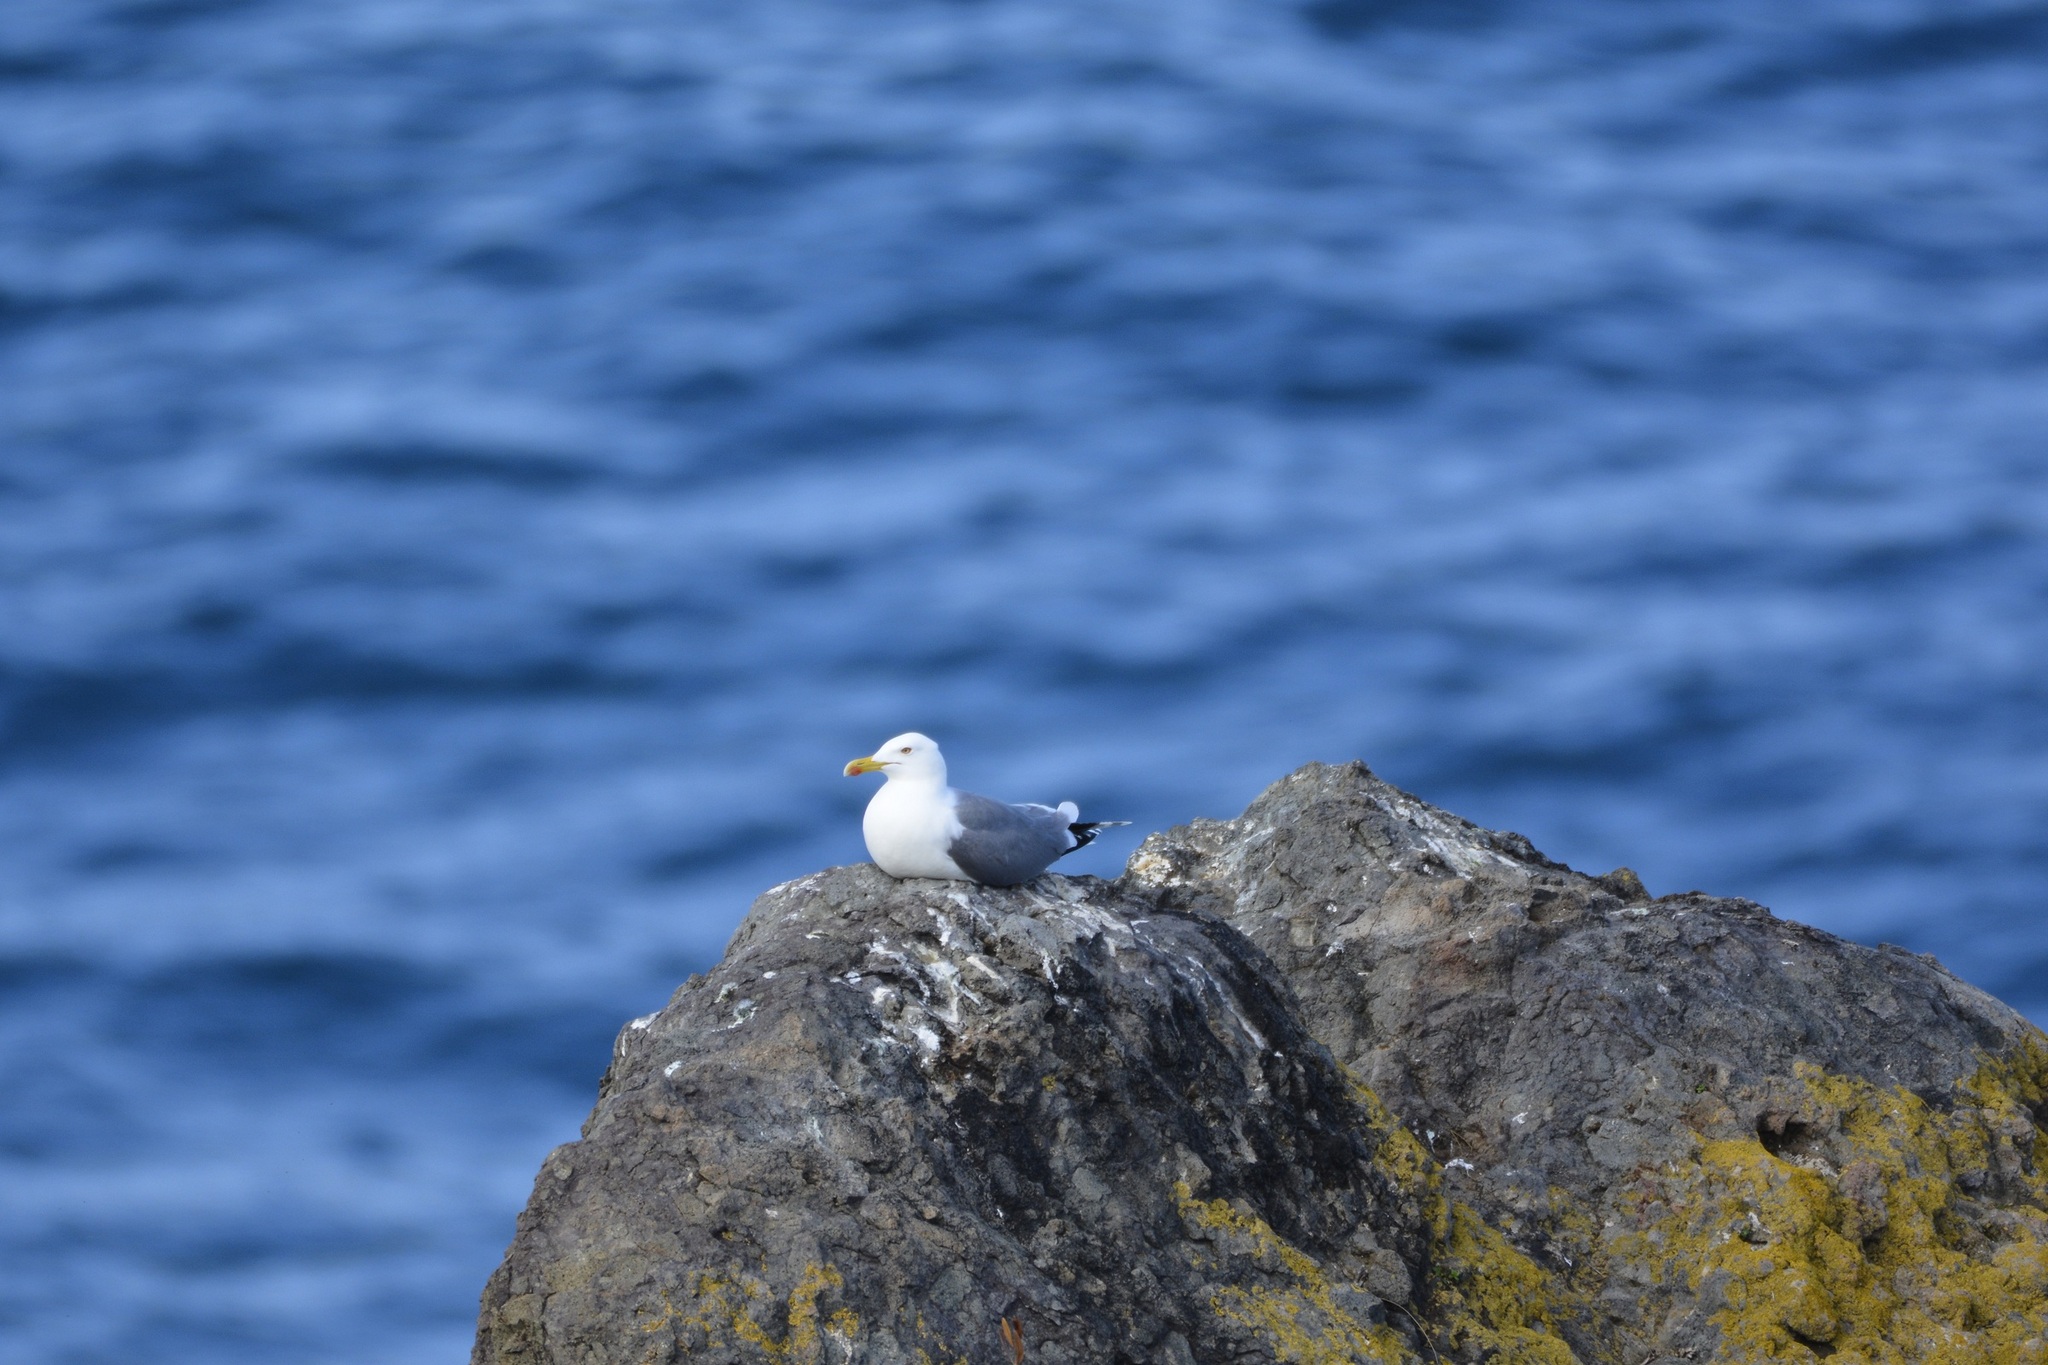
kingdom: Animalia
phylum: Chordata
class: Aves
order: Charadriiformes
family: Laridae
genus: Larus
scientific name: Larus michahellis
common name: Yellow-legged gull
